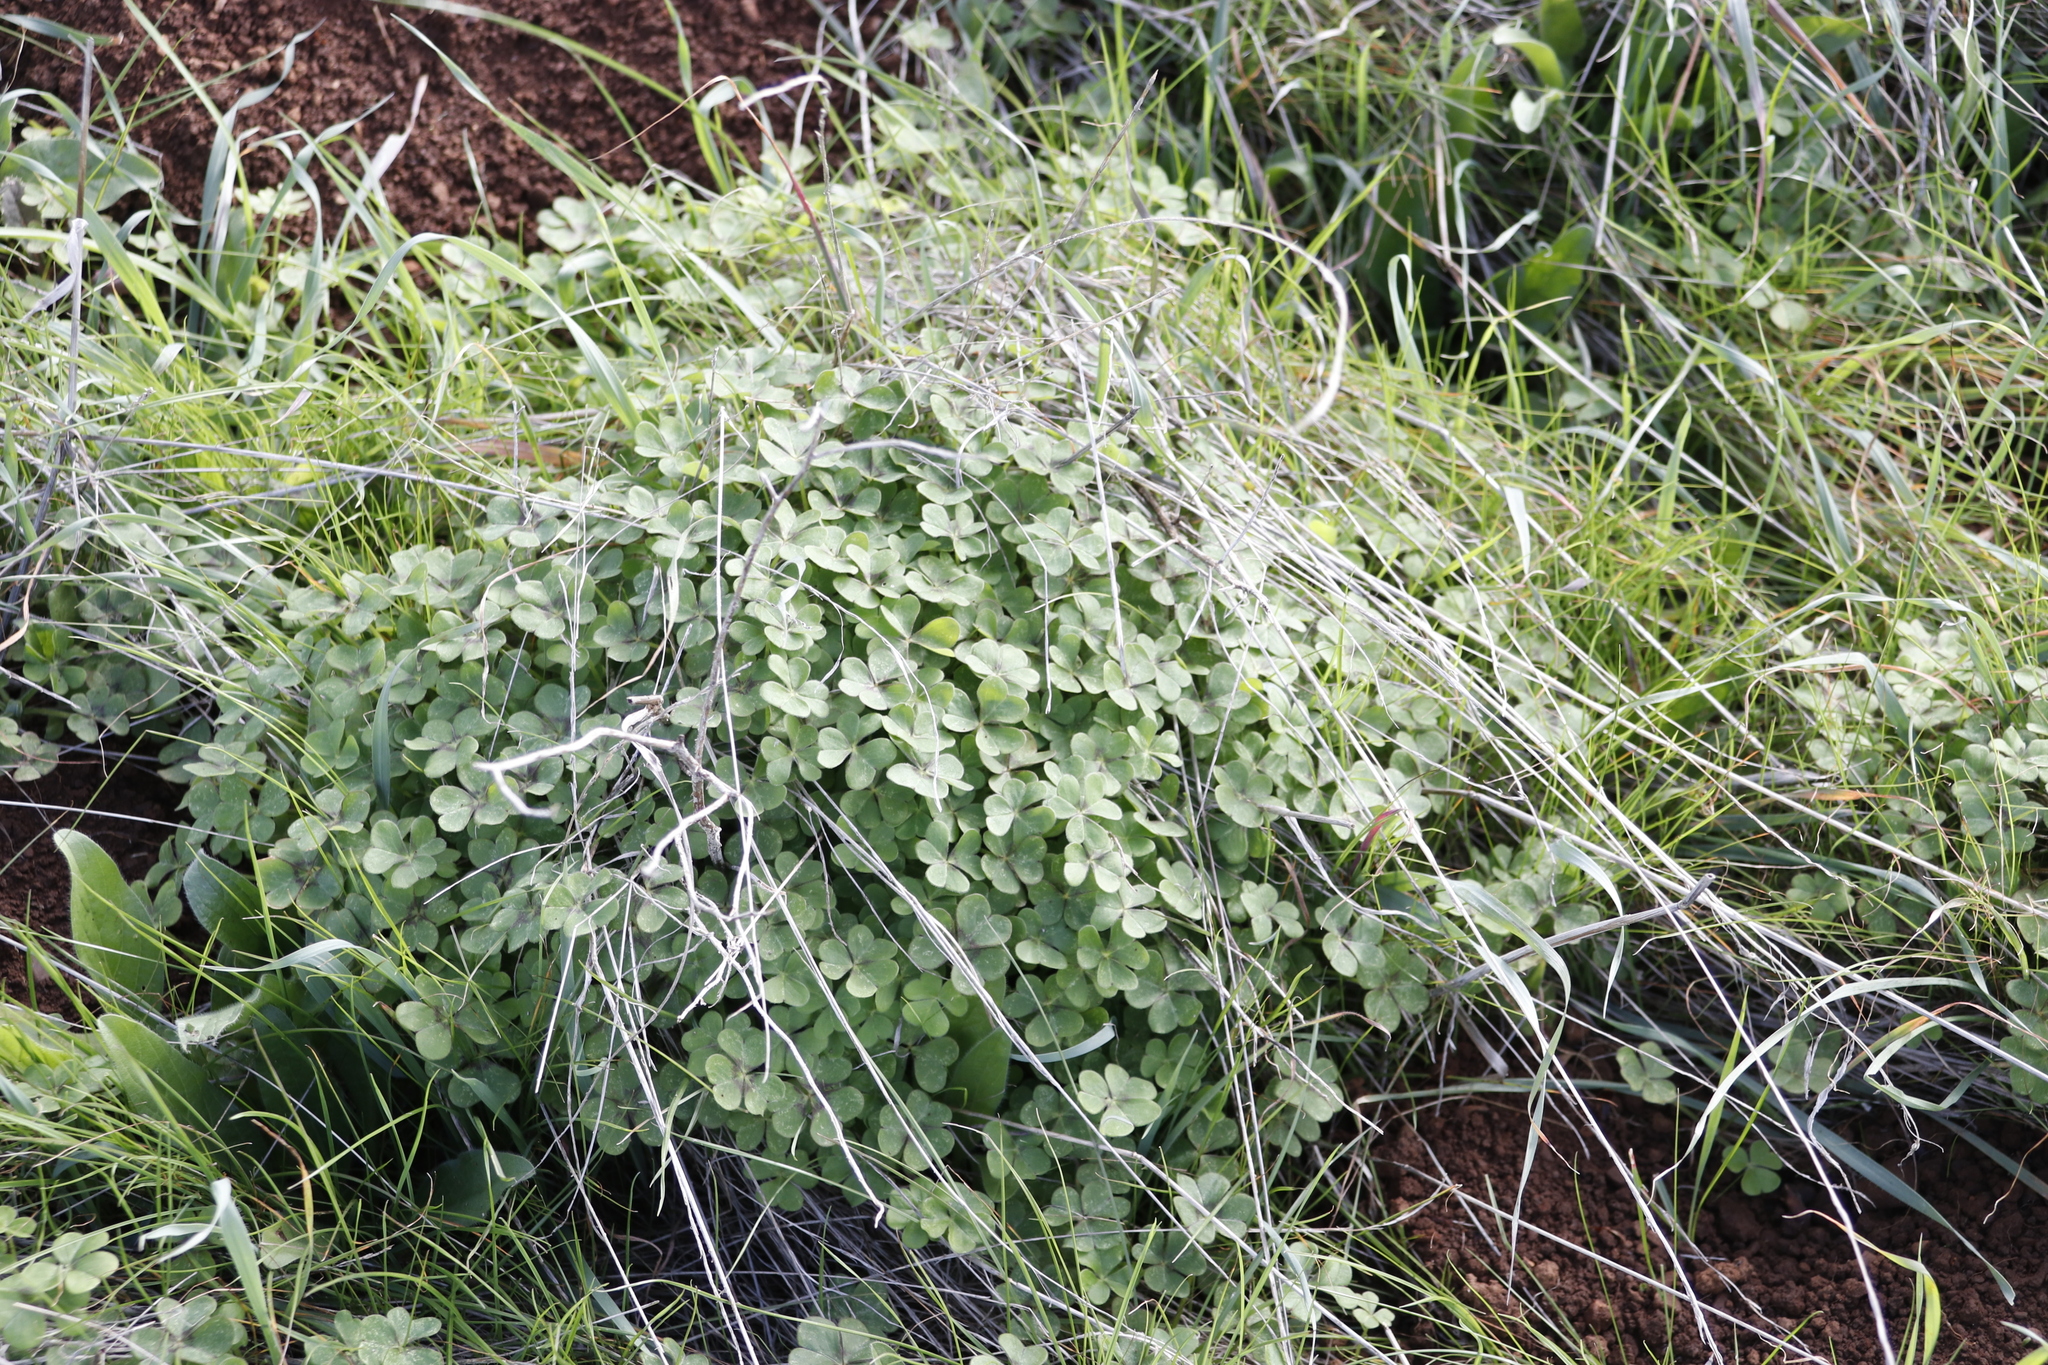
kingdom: Plantae
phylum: Tracheophyta
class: Magnoliopsida
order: Oxalidales
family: Oxalidaceae
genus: Oxalis
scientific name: Oxalis pes-caprae
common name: Bermuda-buttercup
